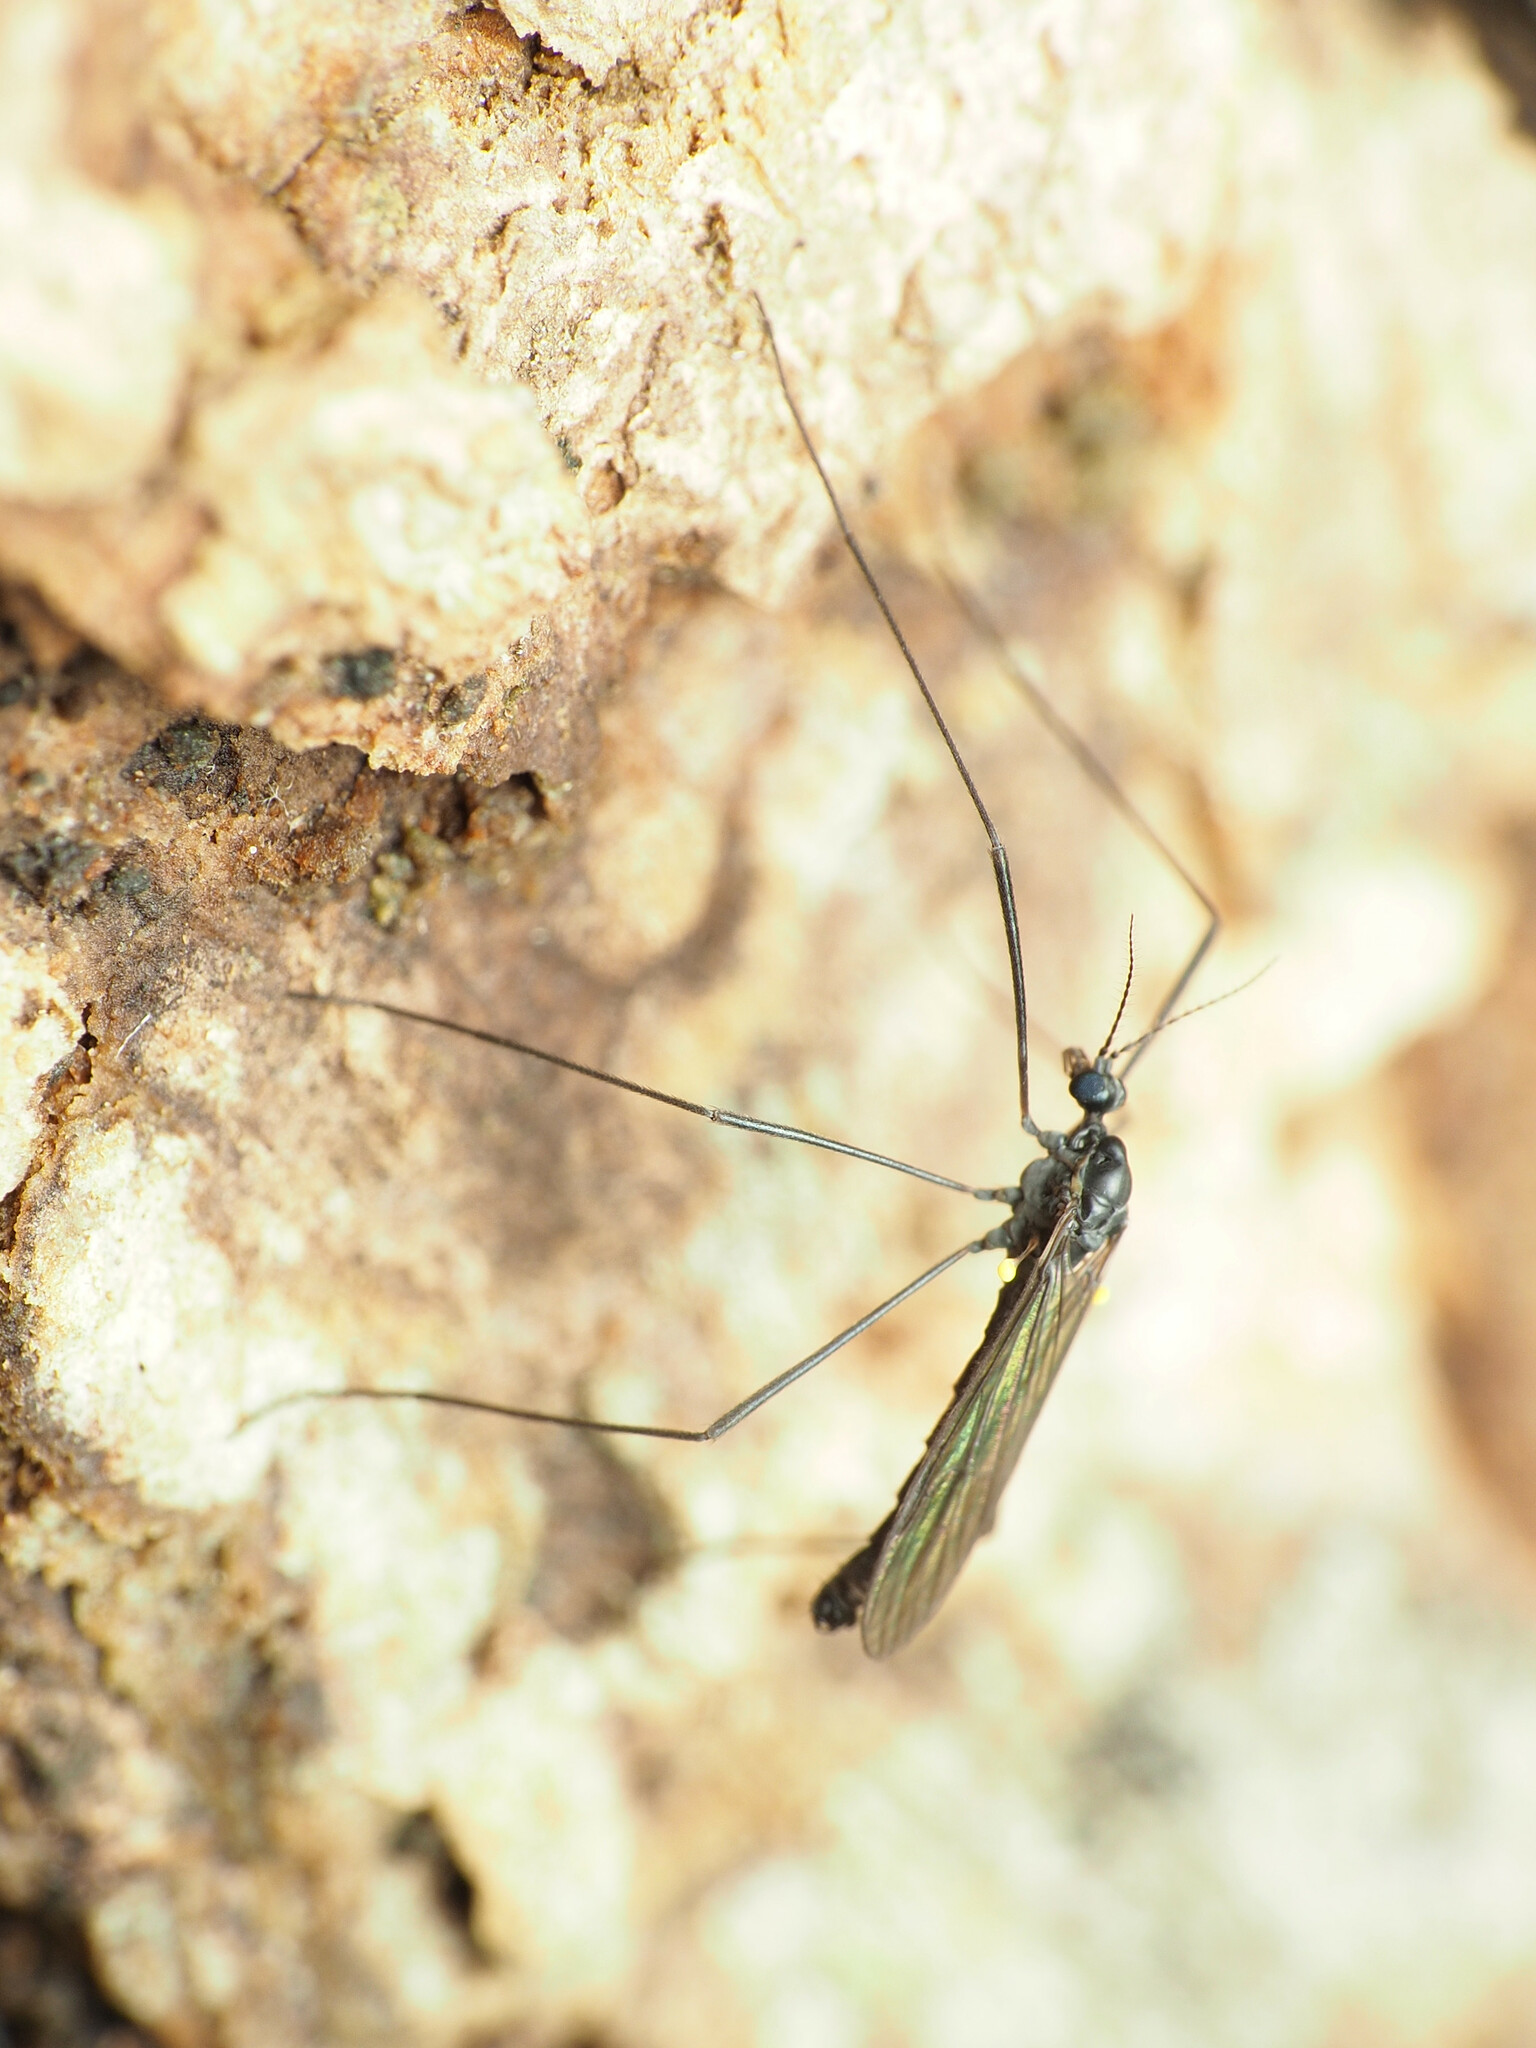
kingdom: Animalia
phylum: Arthropoda
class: Insecta
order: Diptera
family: Limoniidae
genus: Gnophomyia
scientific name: Gnophomyia tristissima
